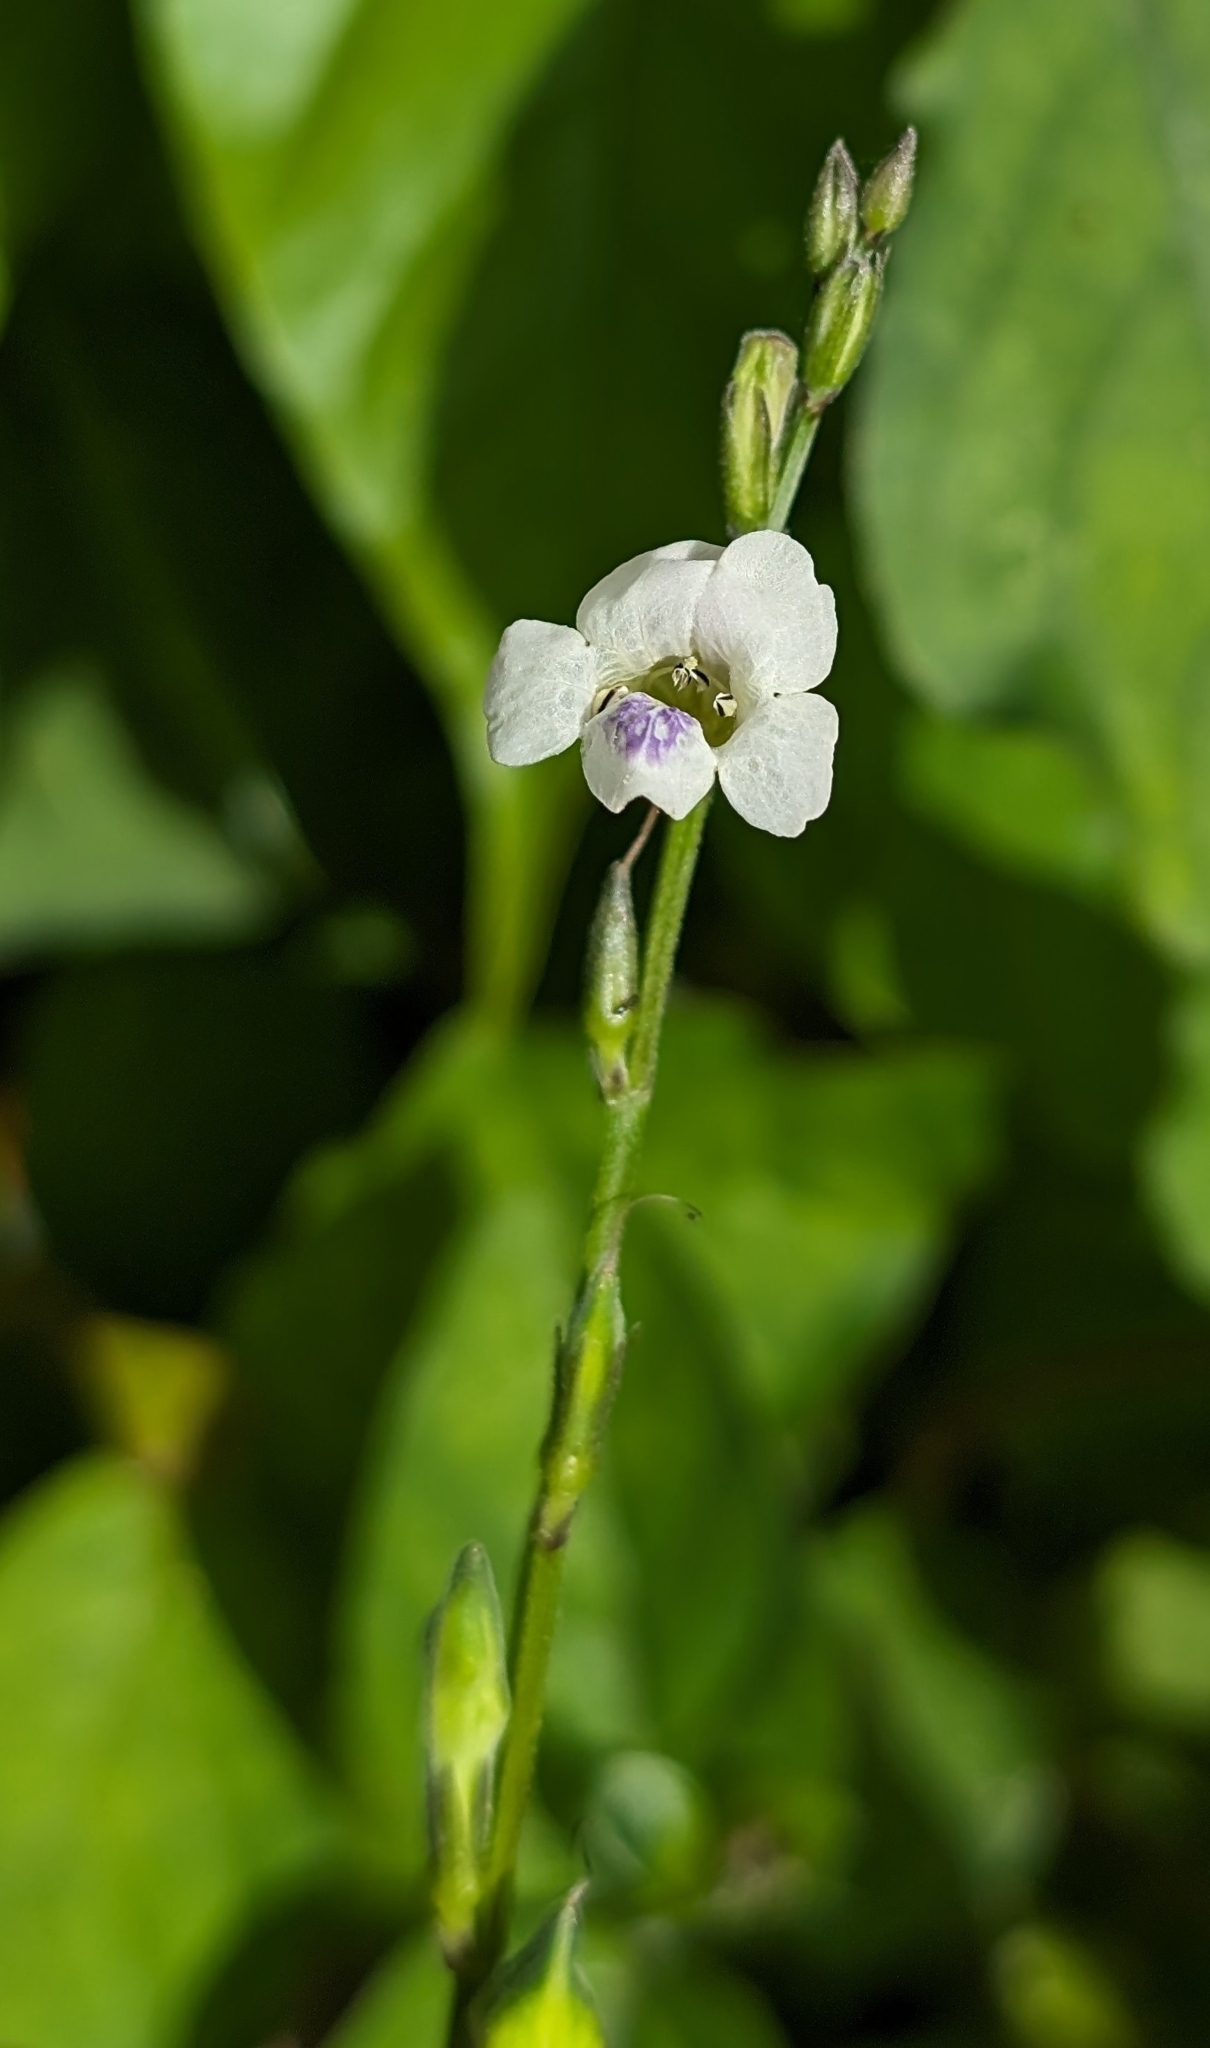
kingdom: Plantae
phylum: Tracheophyta
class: Magnoliopsida
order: Lamiales
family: Acanthaceae
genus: Asystasia
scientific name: Asystasia intrusa
